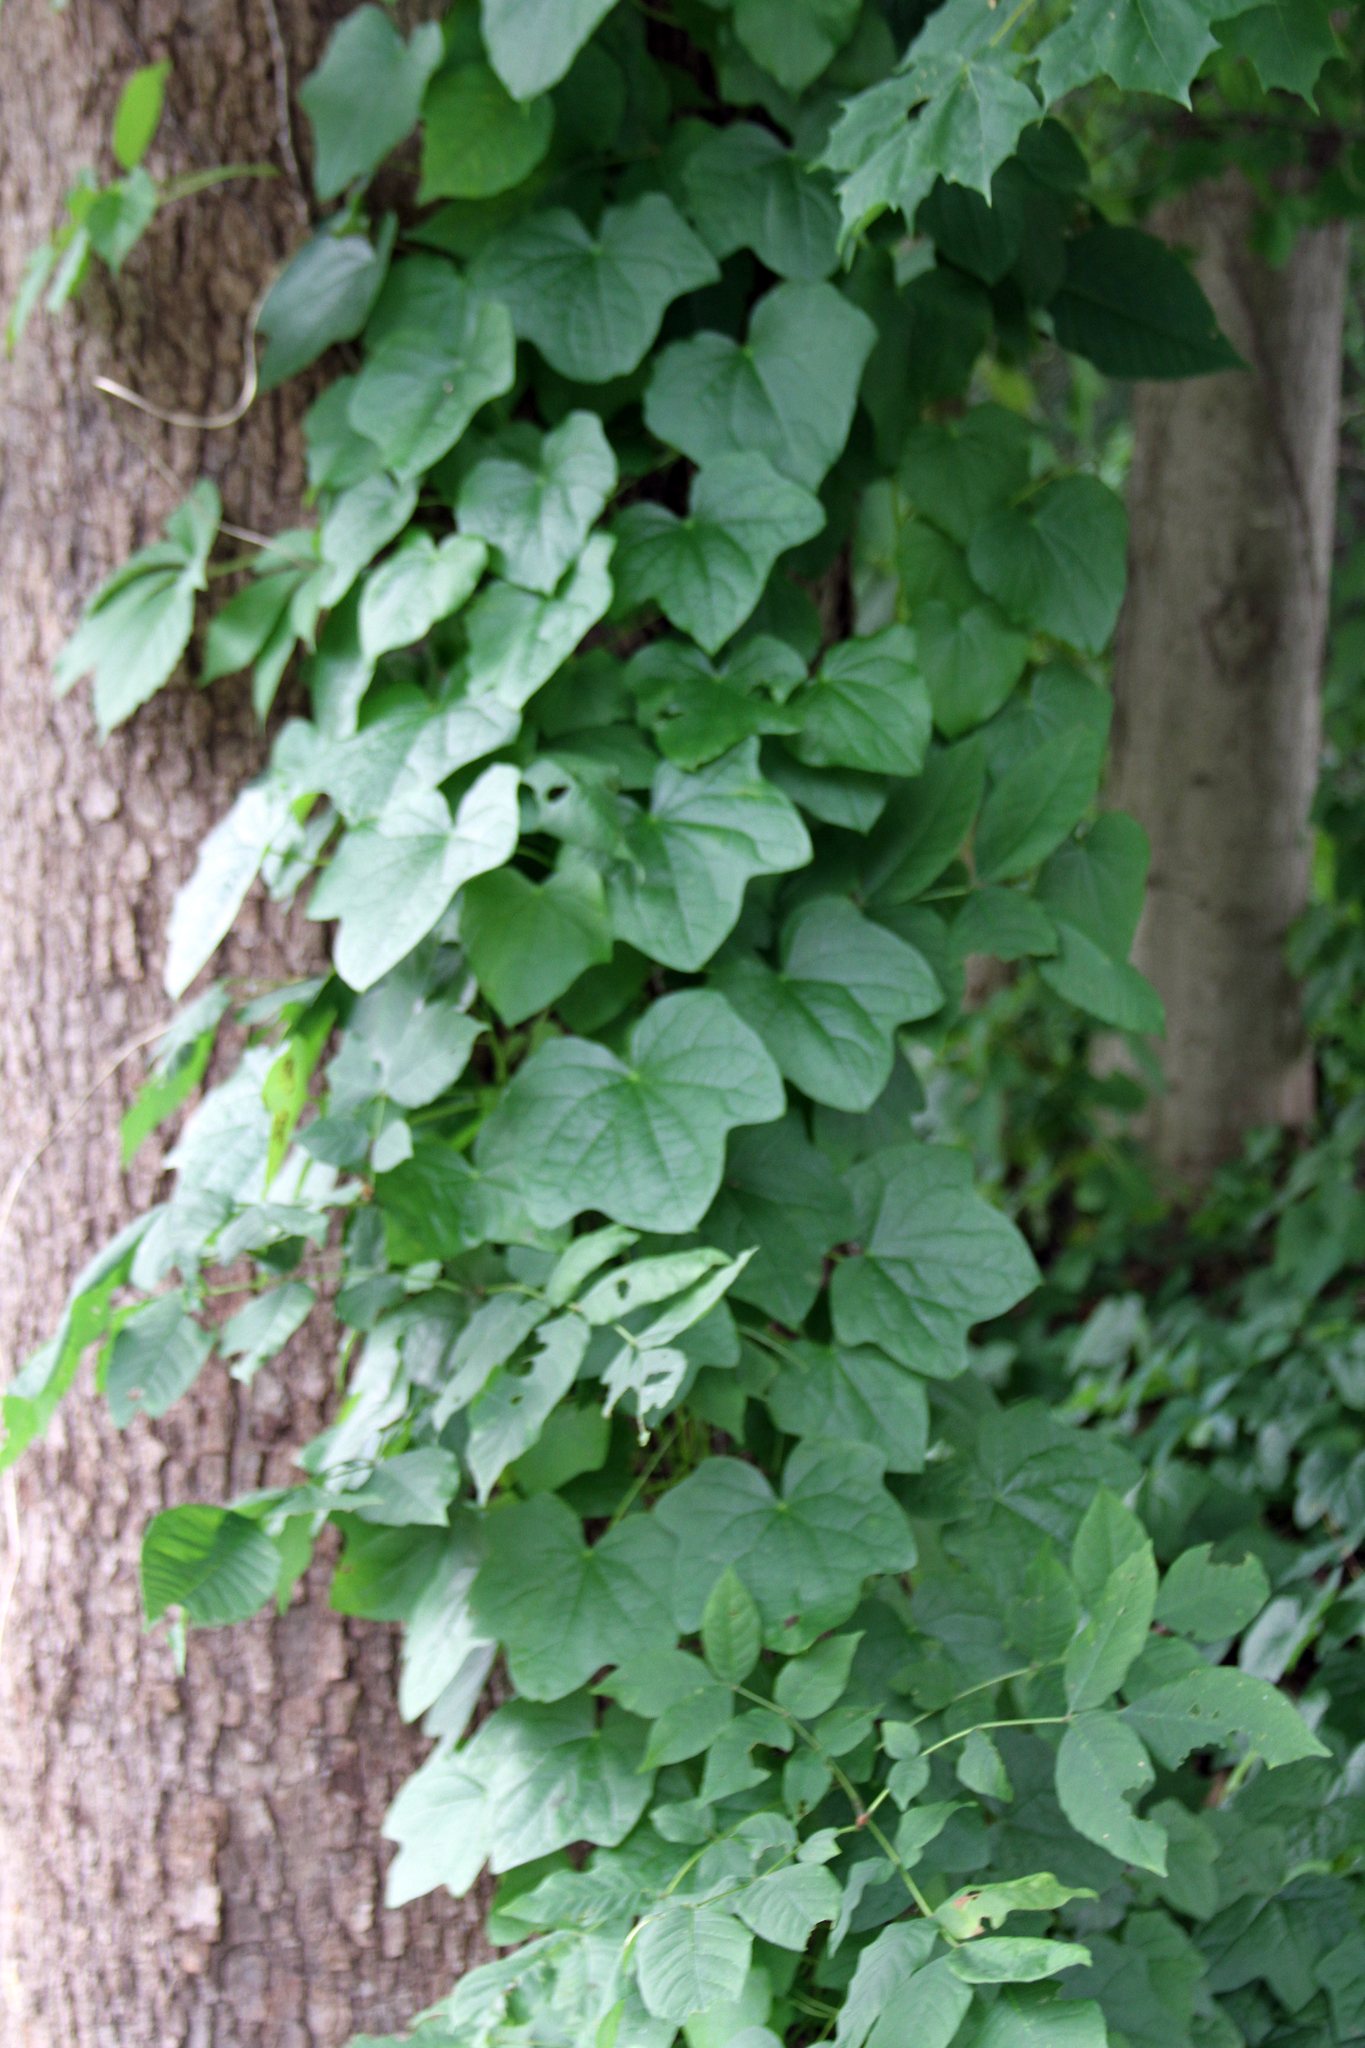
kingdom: Plantae
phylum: Tracheophyta
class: Magnoliopsida
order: Ranunculales
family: Menispermaceae
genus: Menispermum
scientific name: Menispermum canadense
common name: Moonseed
